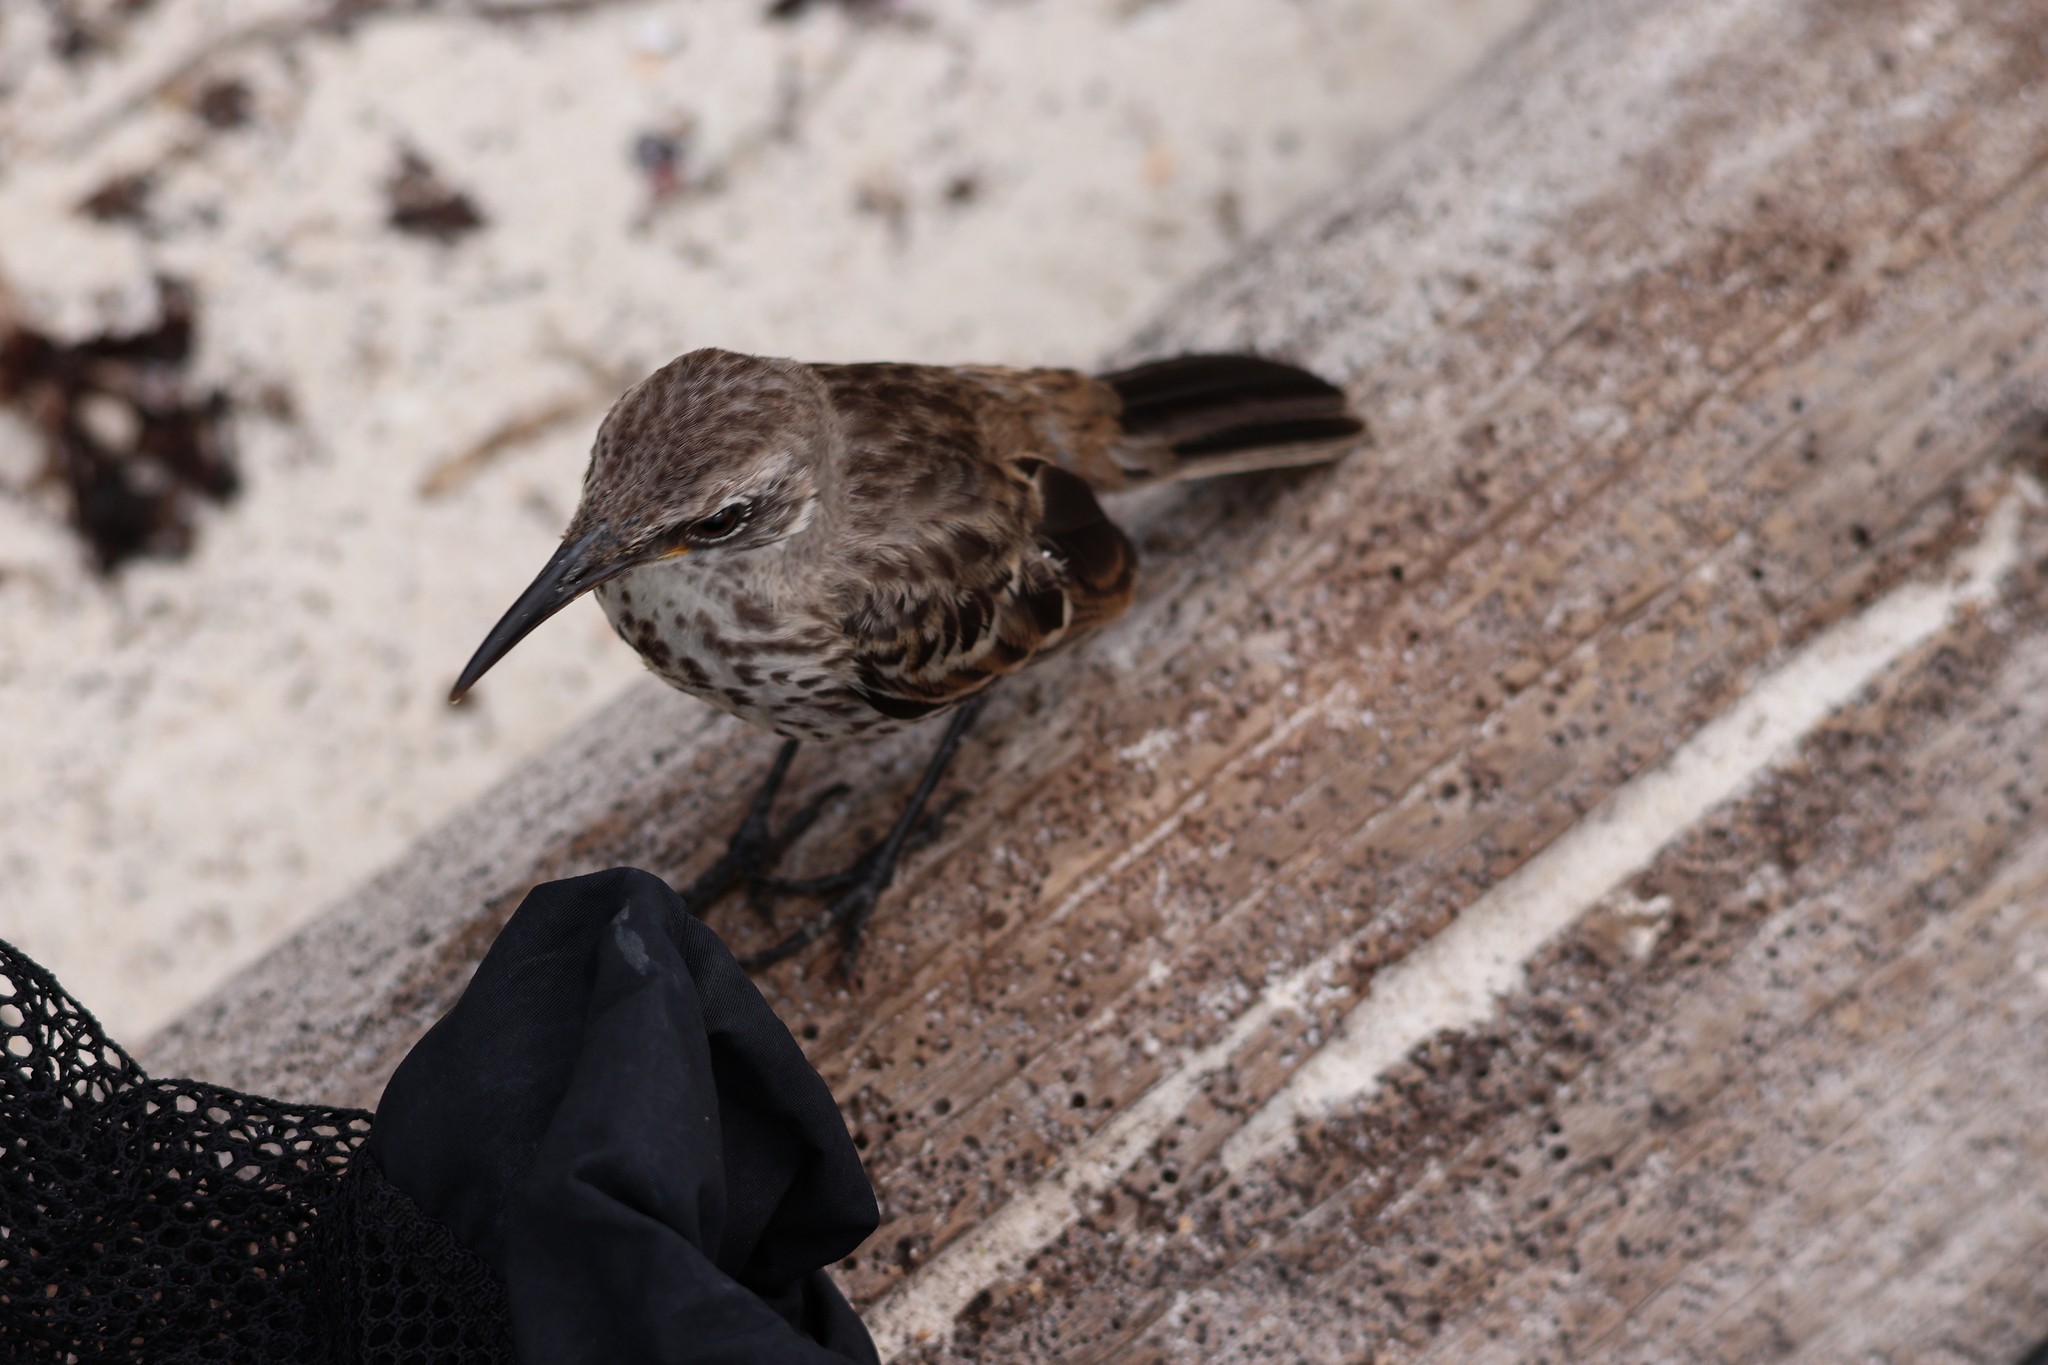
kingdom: Animalia
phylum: Chordata
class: Aves
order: Passeriformes
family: Mimidae
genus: Mimus
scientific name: Mimus macdonaldi
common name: Espanola mockingbird
